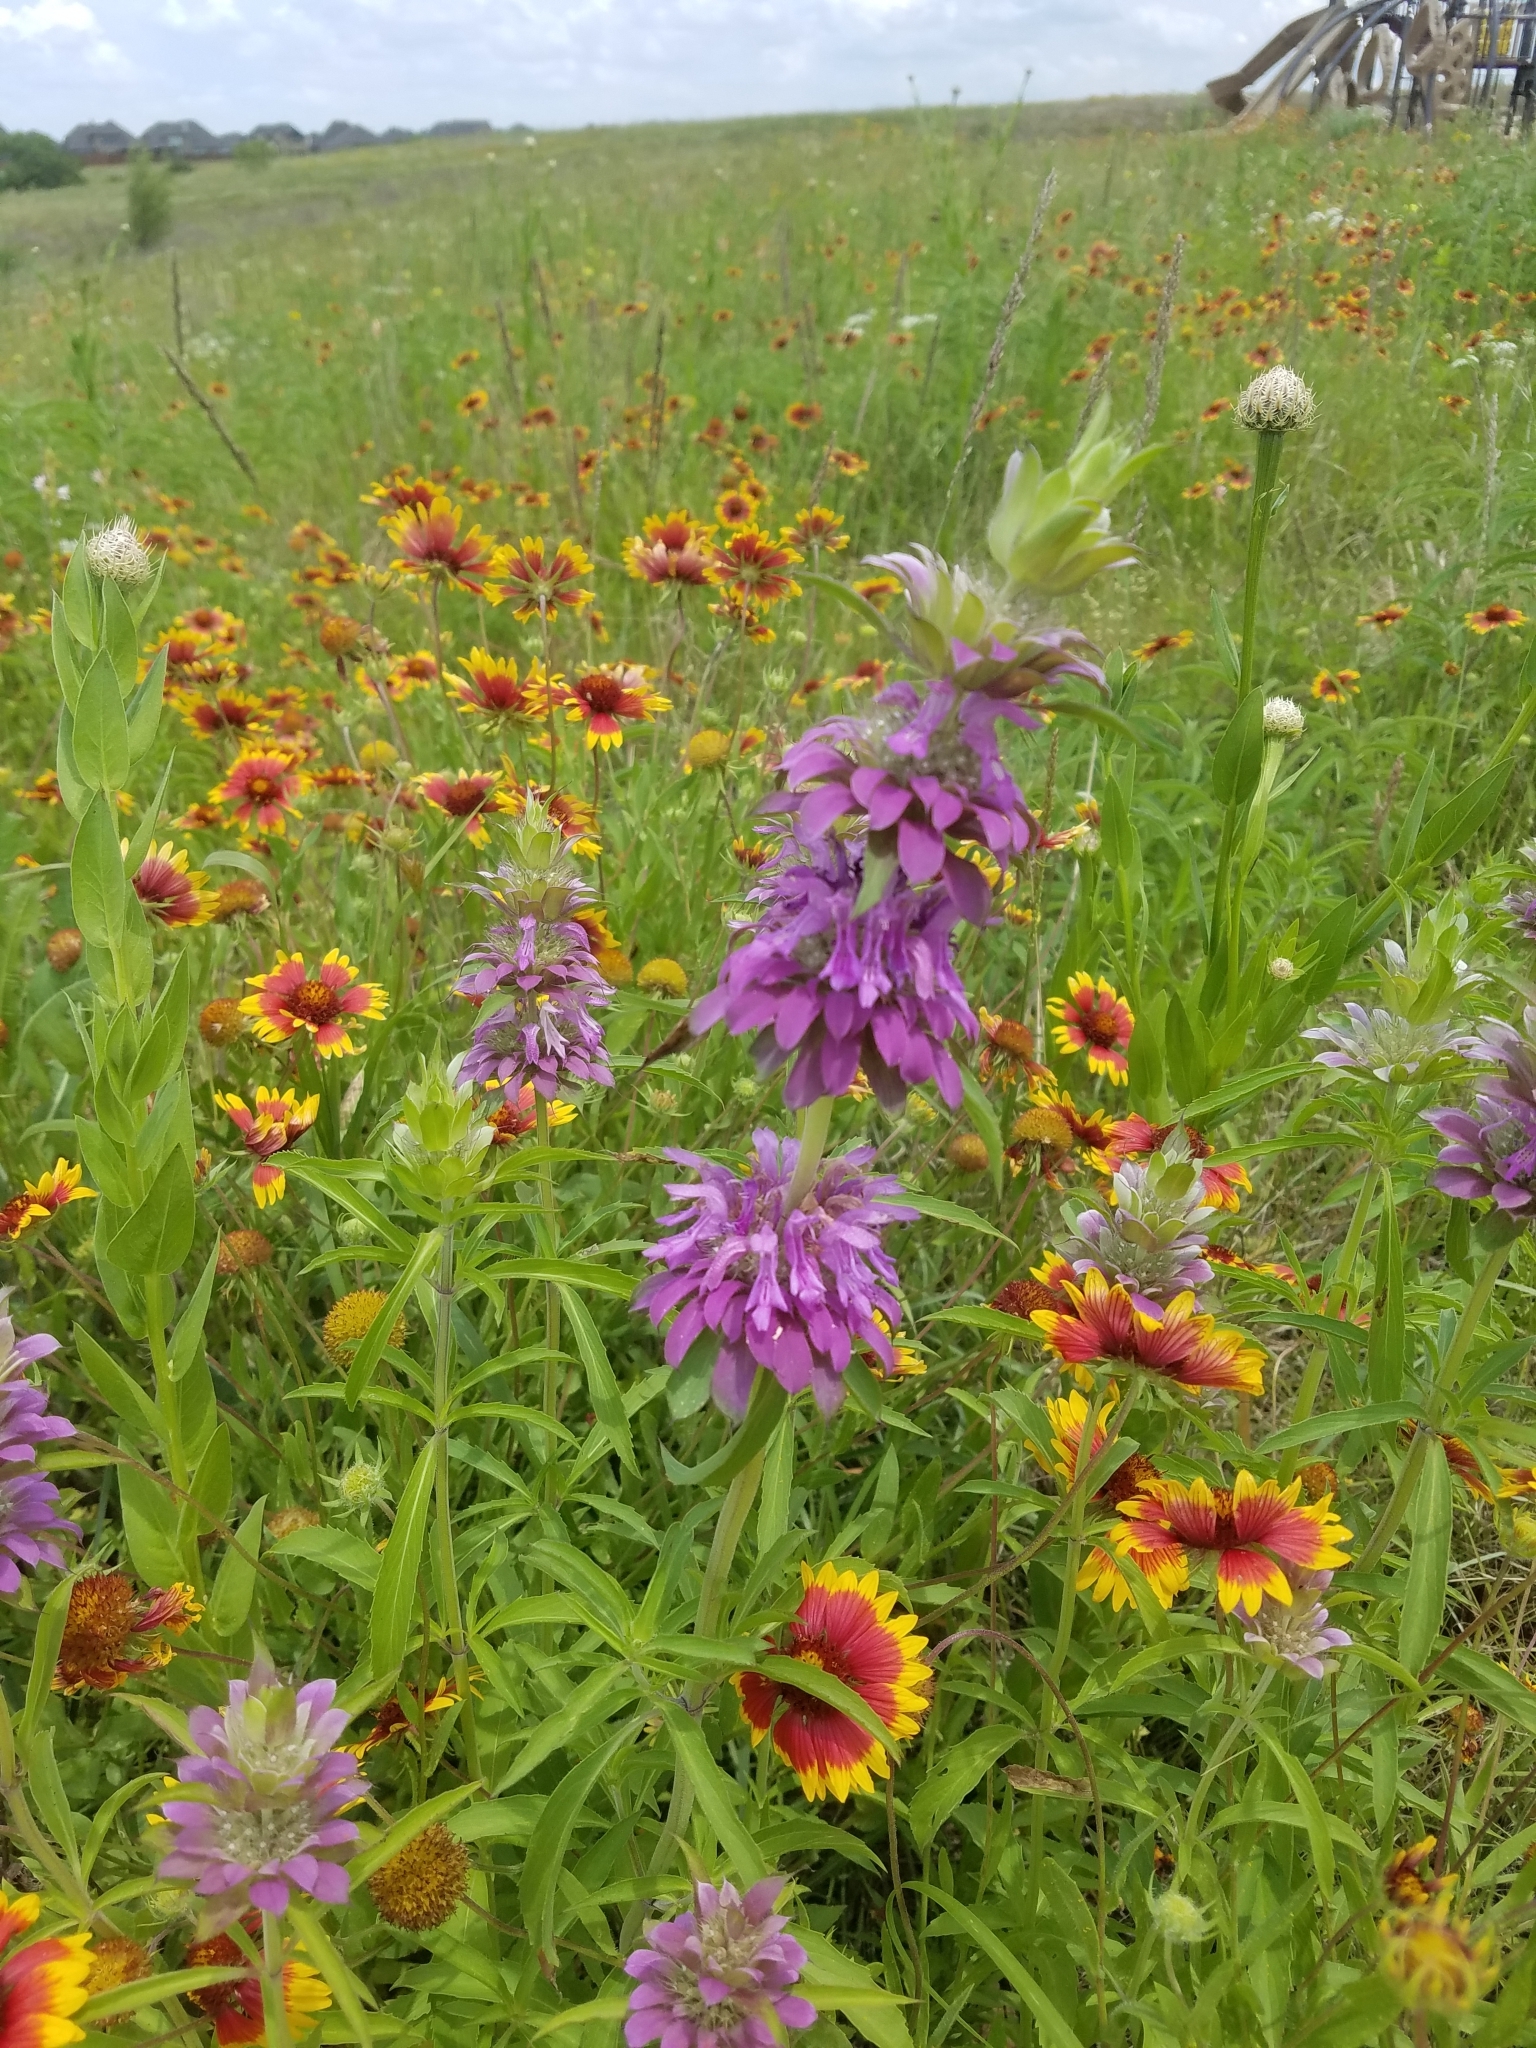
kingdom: Plantae
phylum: Tracheophyta
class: Magnoliopsida
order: Lamiales
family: Lamiaceae
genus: Monarda
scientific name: Monarda citriodora
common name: Lemon beebalm
